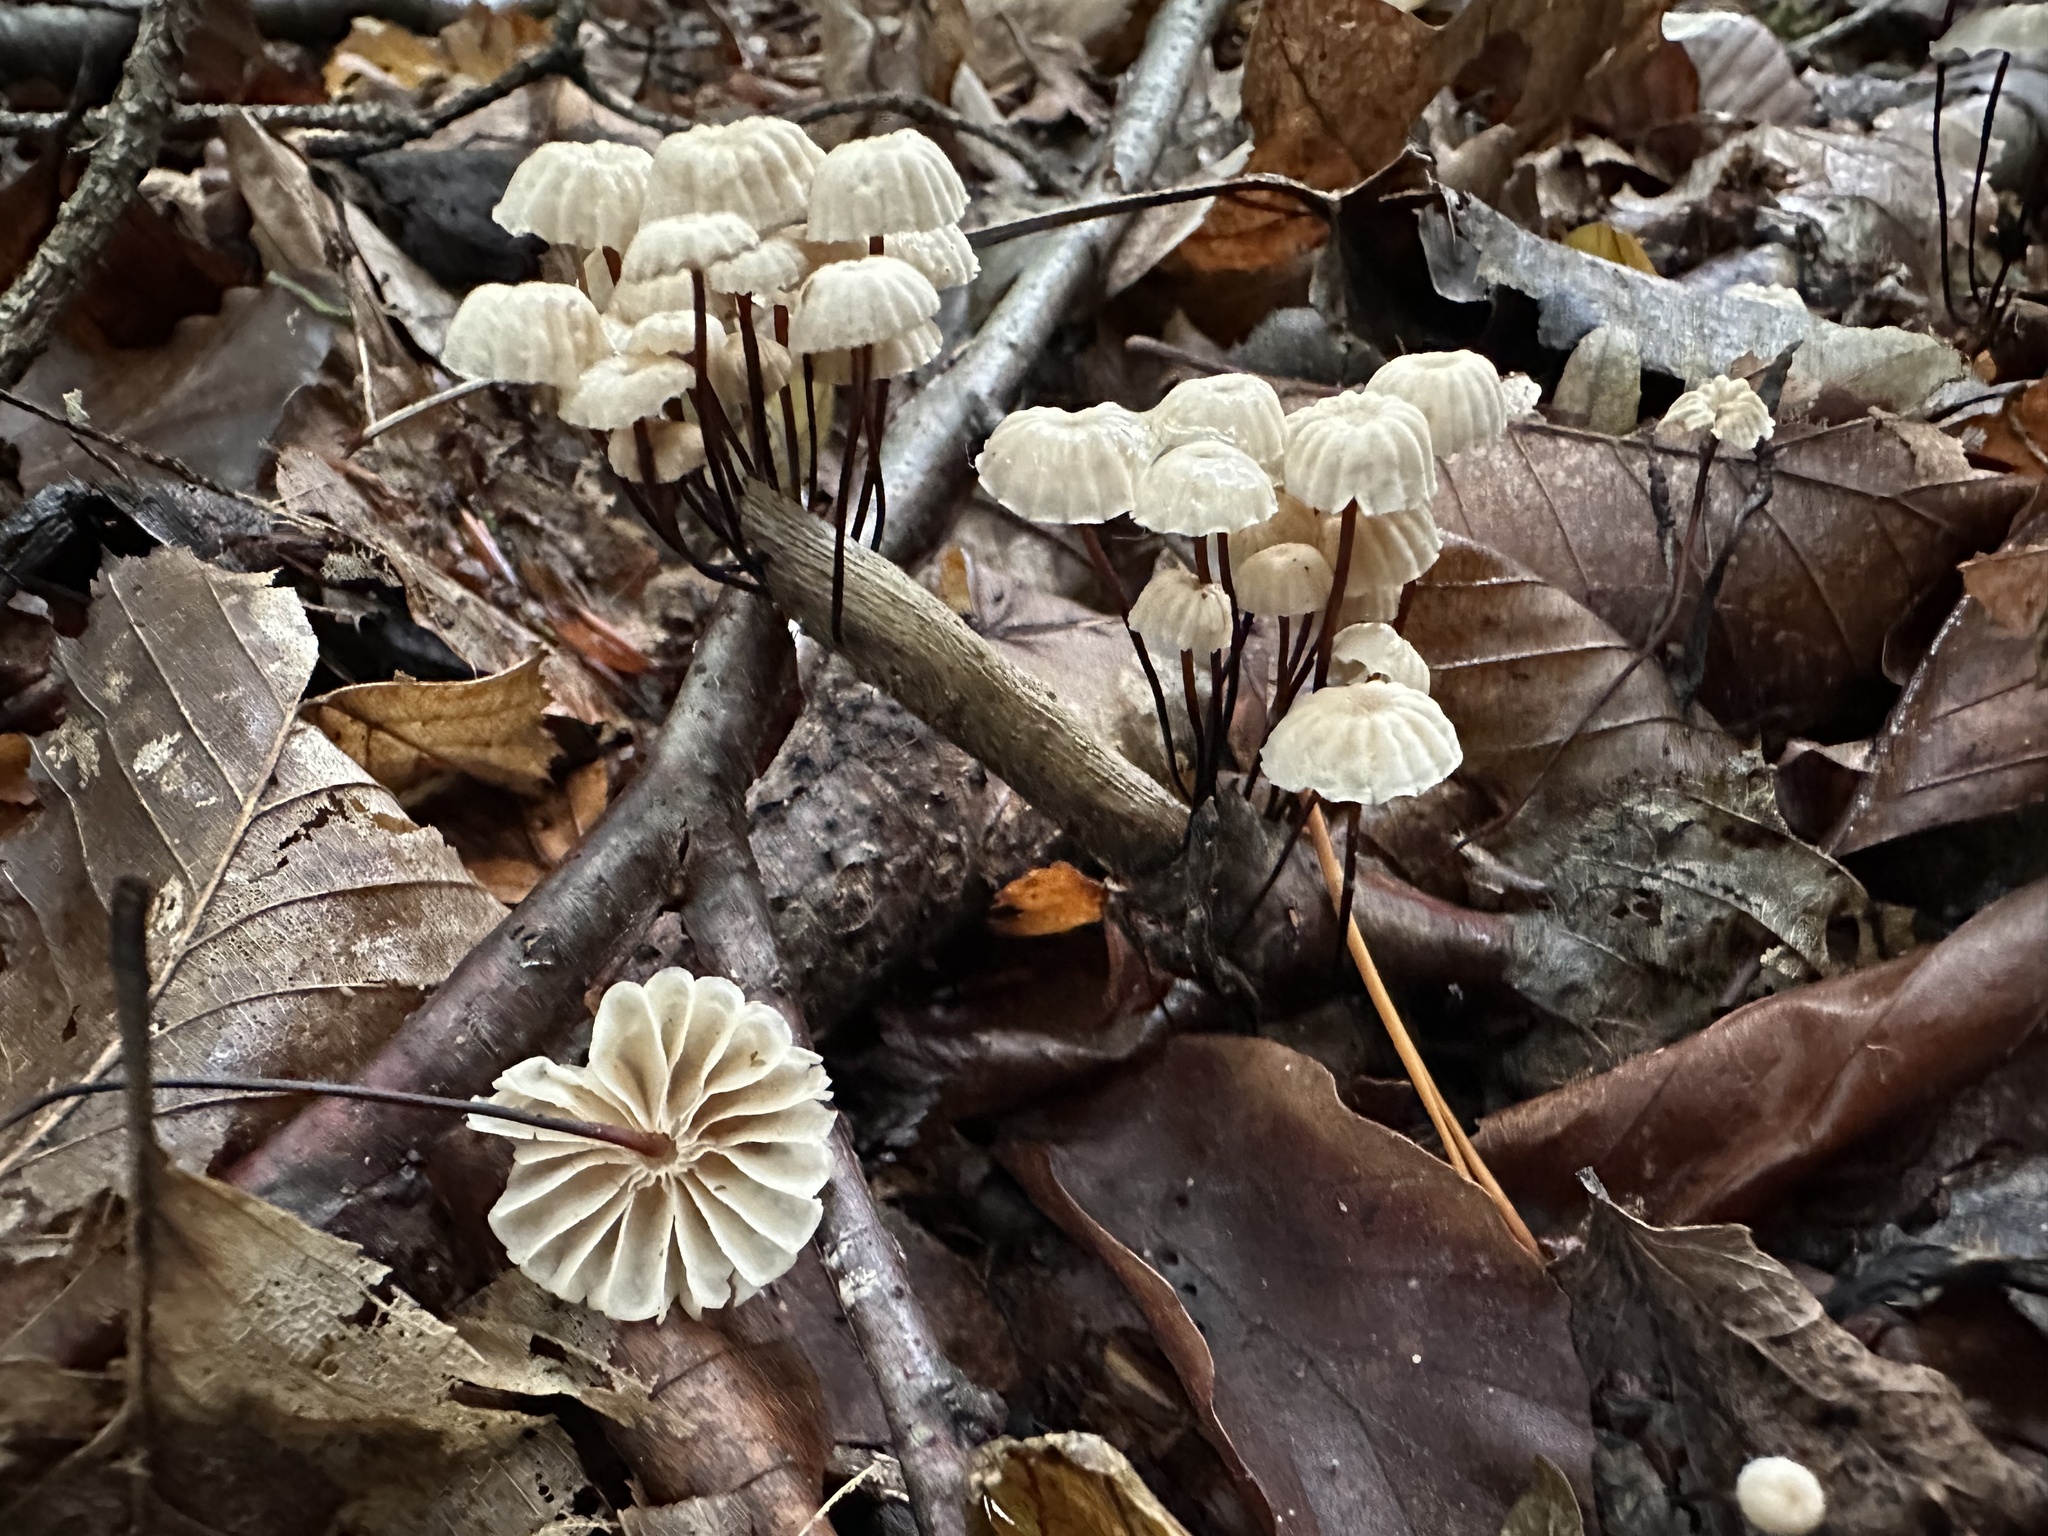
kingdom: Fungi
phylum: Basidiomycota
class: Agaricomycetes
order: Agaricales
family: Marasmiaceae
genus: Marasmius
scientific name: Marasmius rotula
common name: Collared parachute
